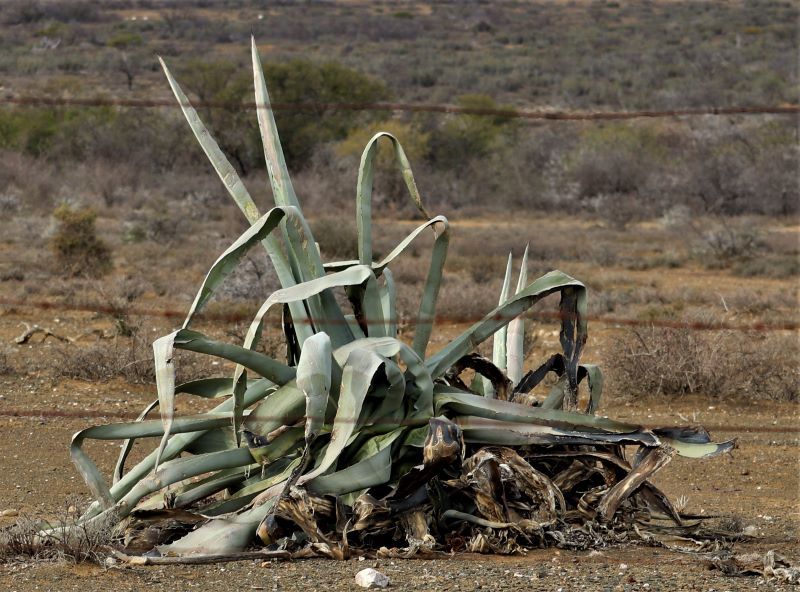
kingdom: Plantae
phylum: Tracheophyta
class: Liliopsida
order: Asparagales
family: Asparagaceae
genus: Agave
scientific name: Agave americana
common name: Centuryplant
